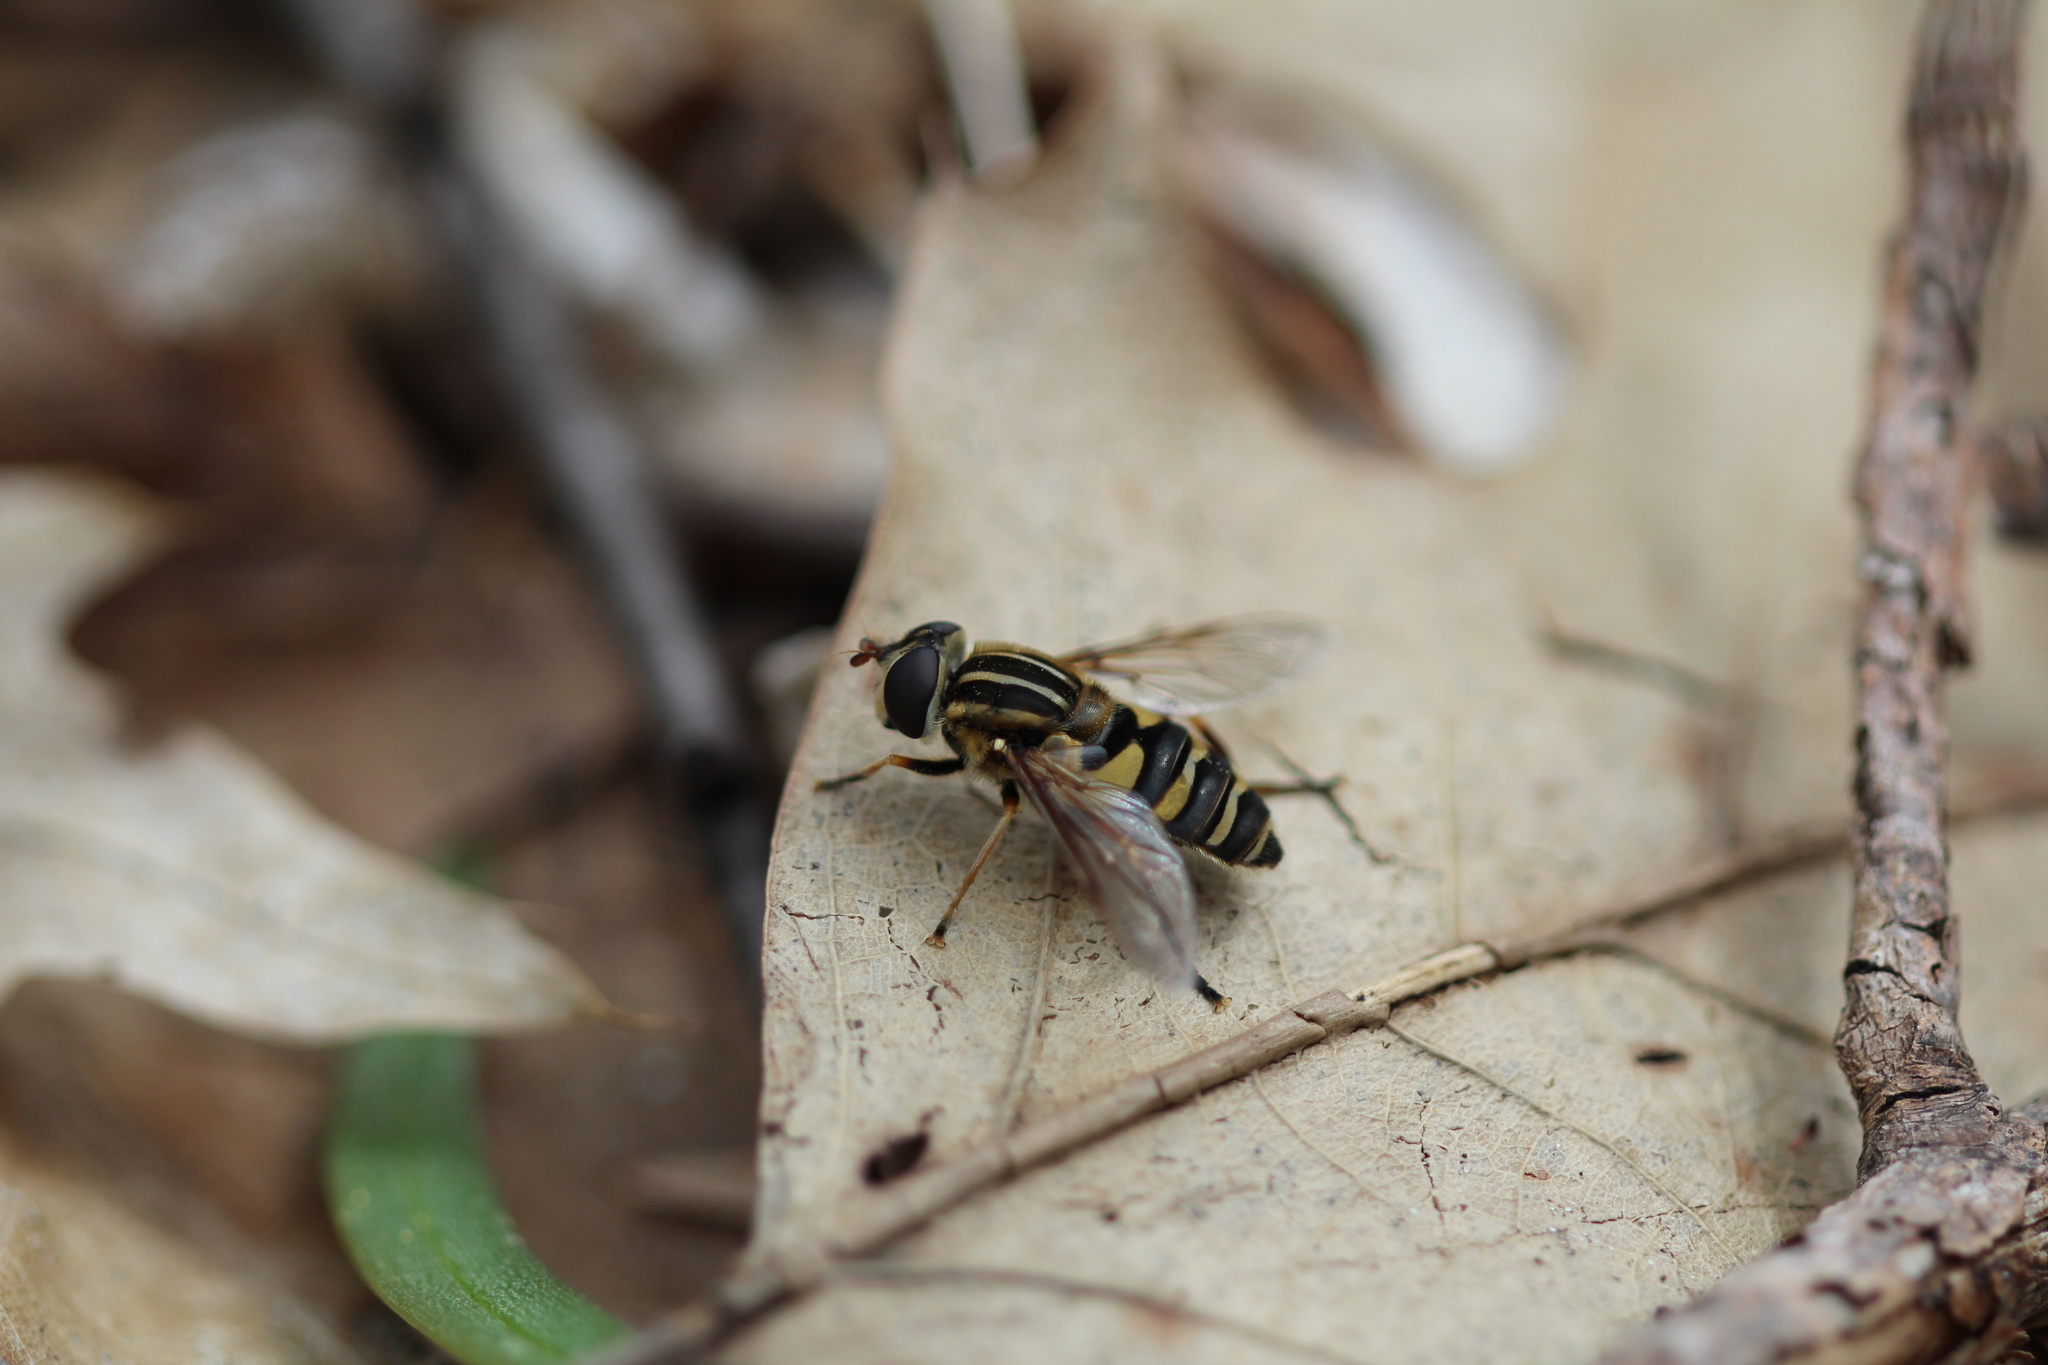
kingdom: Animalia
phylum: Arthropoda
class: Insecta
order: Diptera
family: Syrphidae
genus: Helophilus
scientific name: Helophilus fasciatus
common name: Narrow-headed marsh fly
